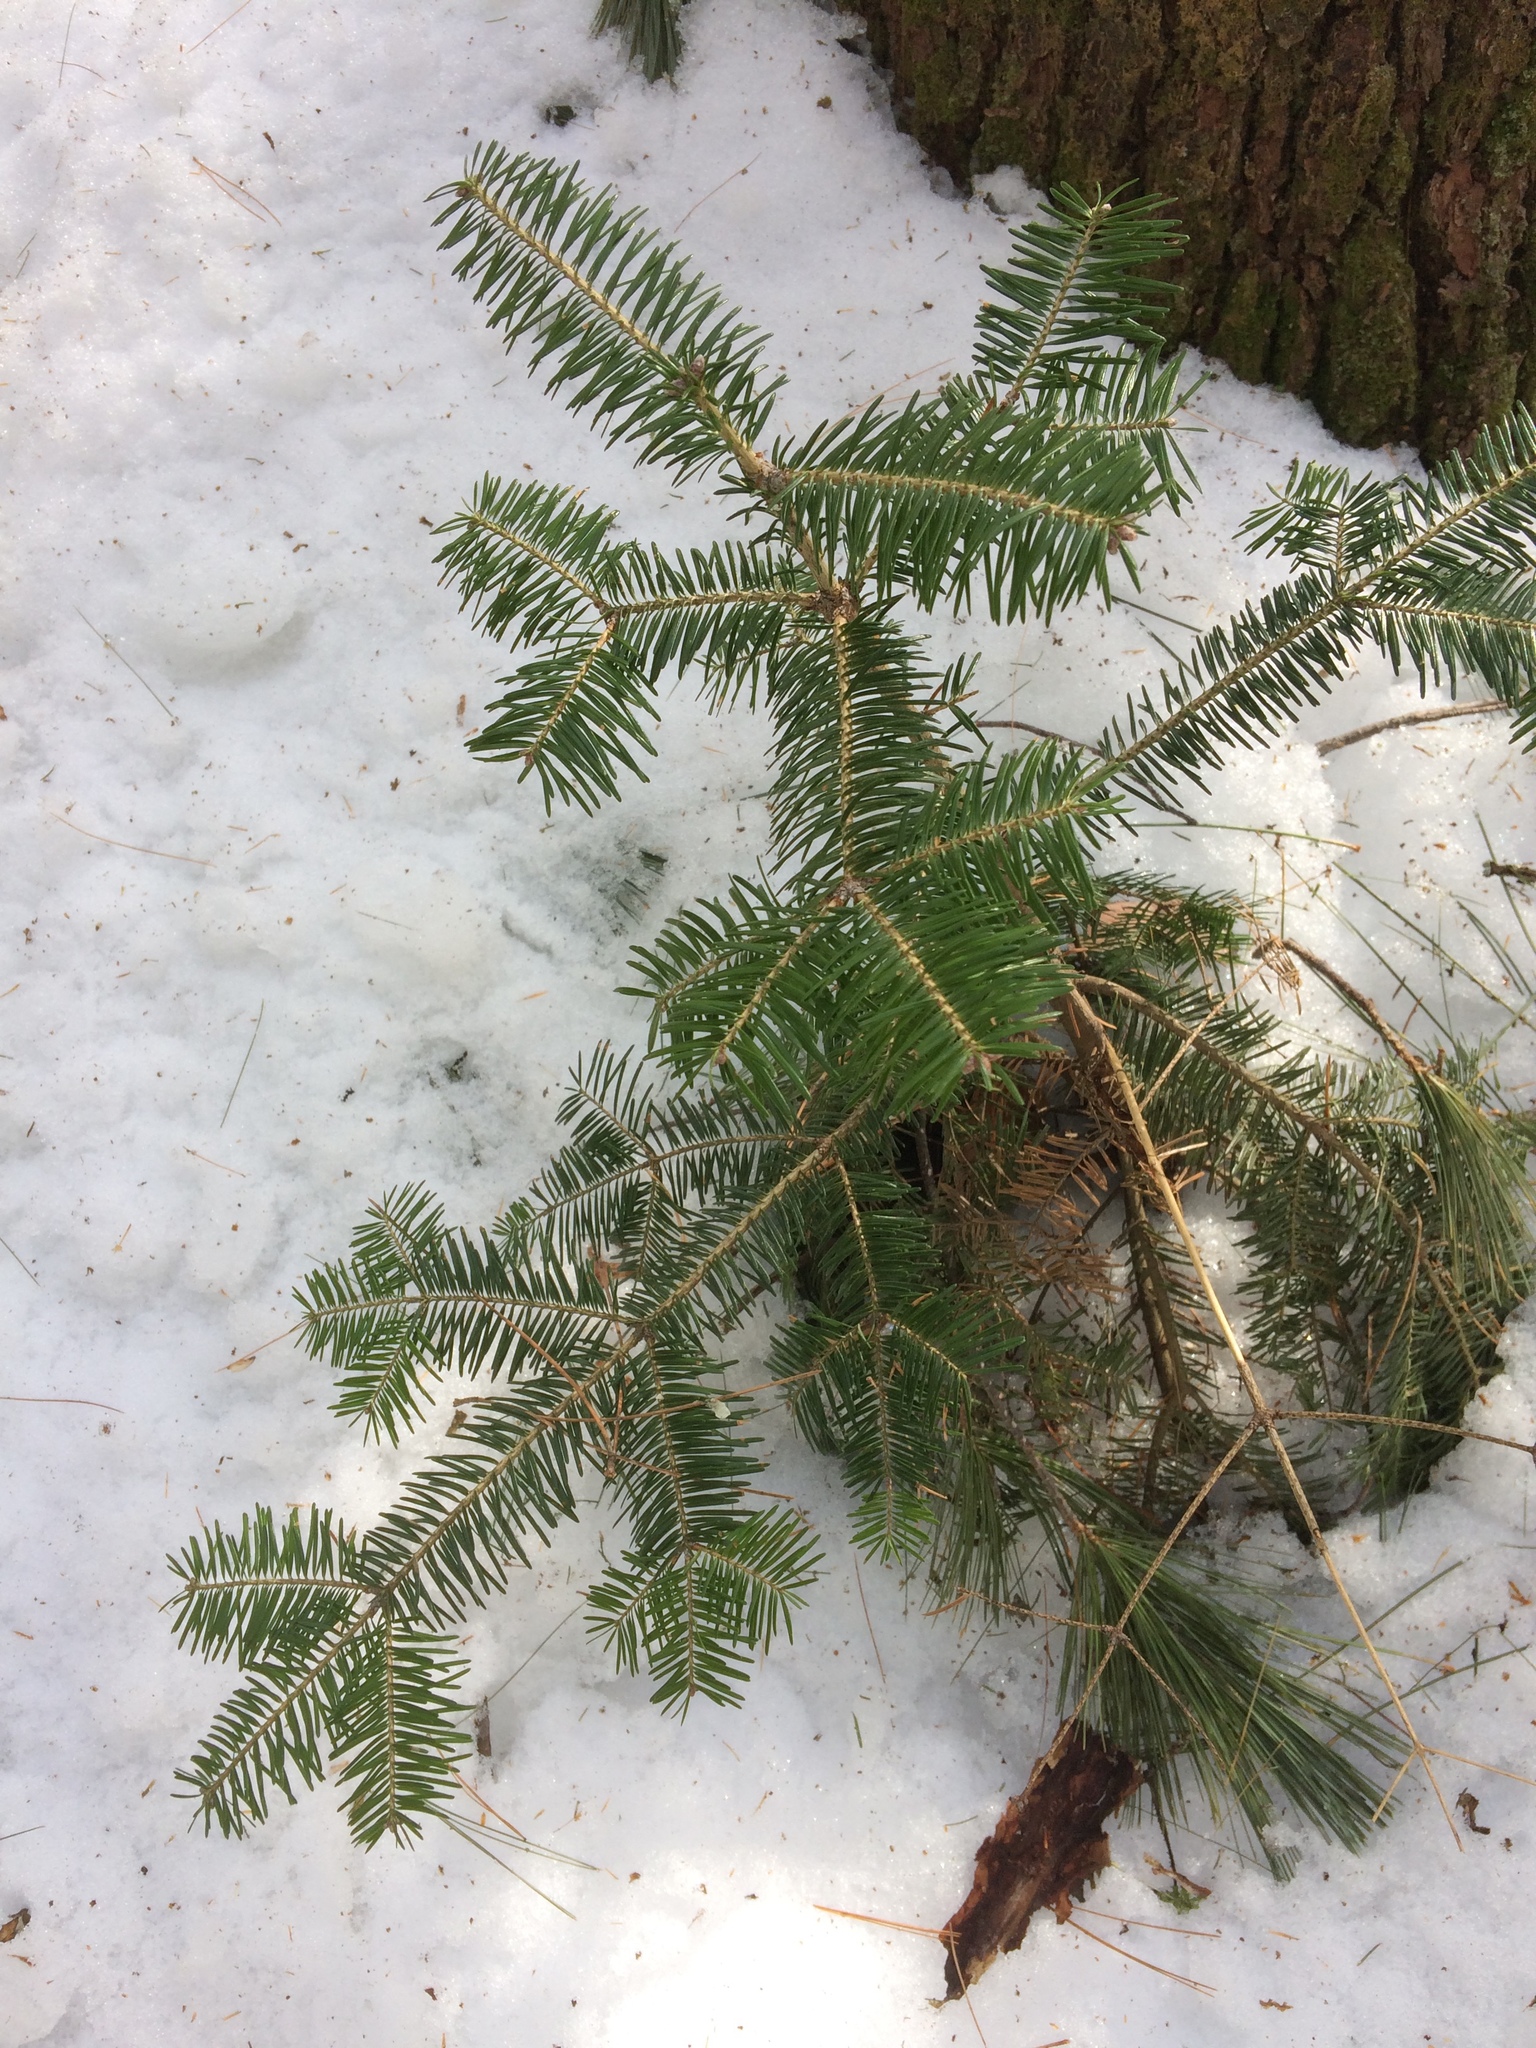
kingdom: Plantae
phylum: Tracheophyta
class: Pinopsida
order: Pinales
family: Pinaceae
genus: Abies
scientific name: Abies balsamea
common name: Balsam fir
